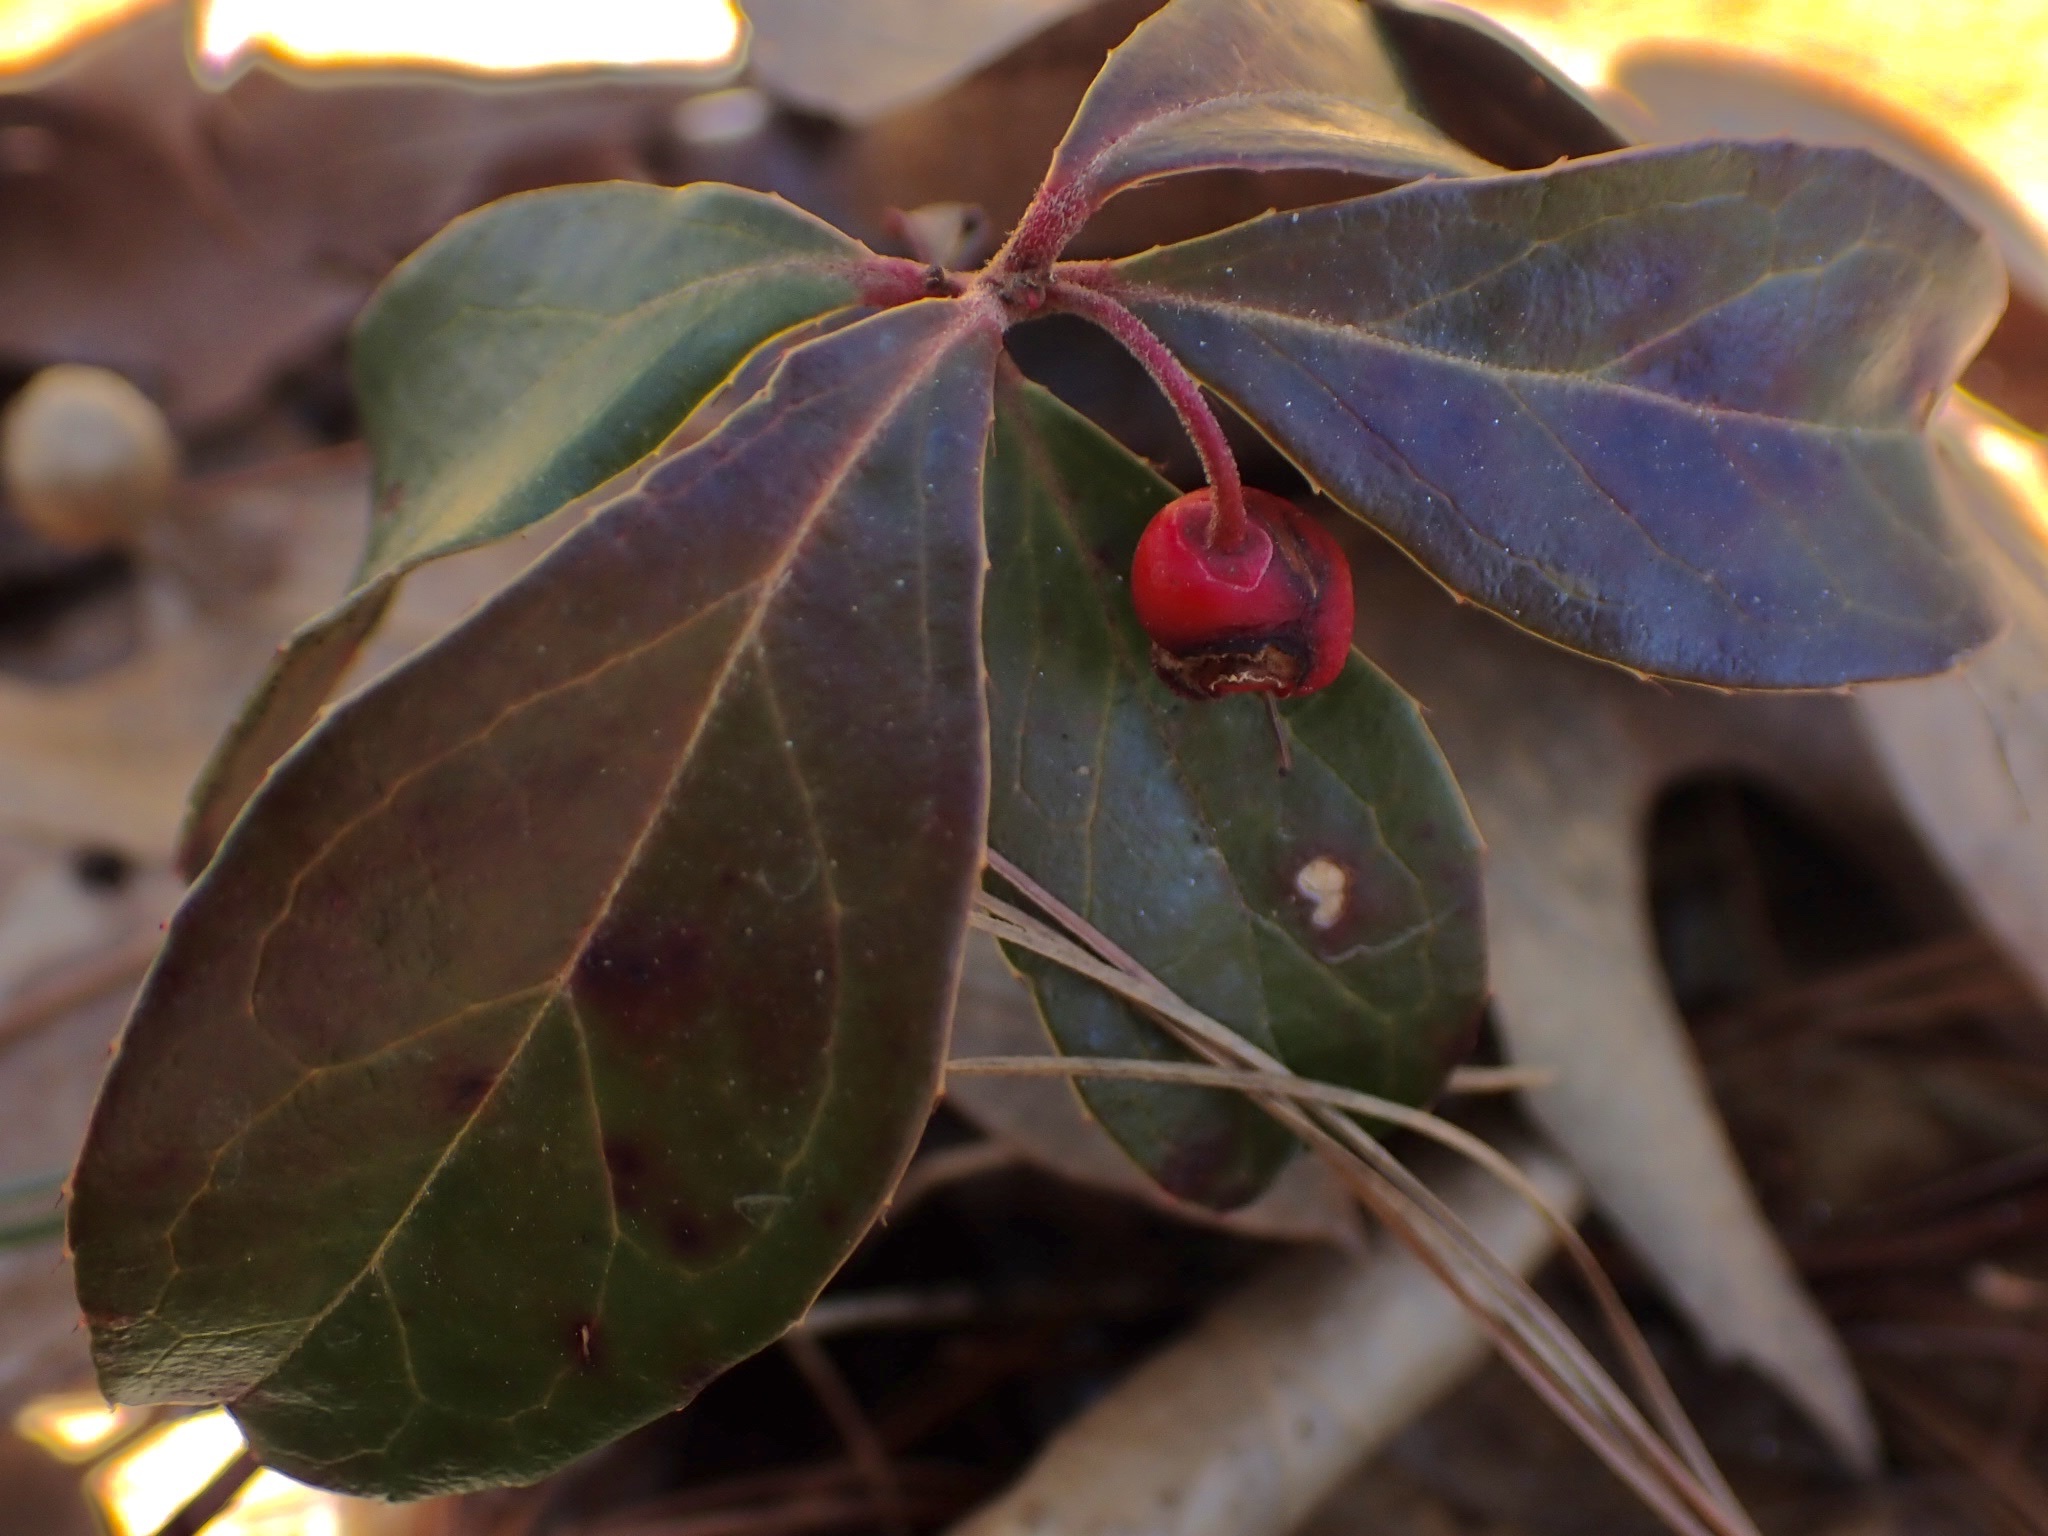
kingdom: Plantae
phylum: Tracheophyta
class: Magnoliopsida
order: Ericales
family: Ericaceae
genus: Gaultheria
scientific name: Gaultheria procumbens
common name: Checkerberry
